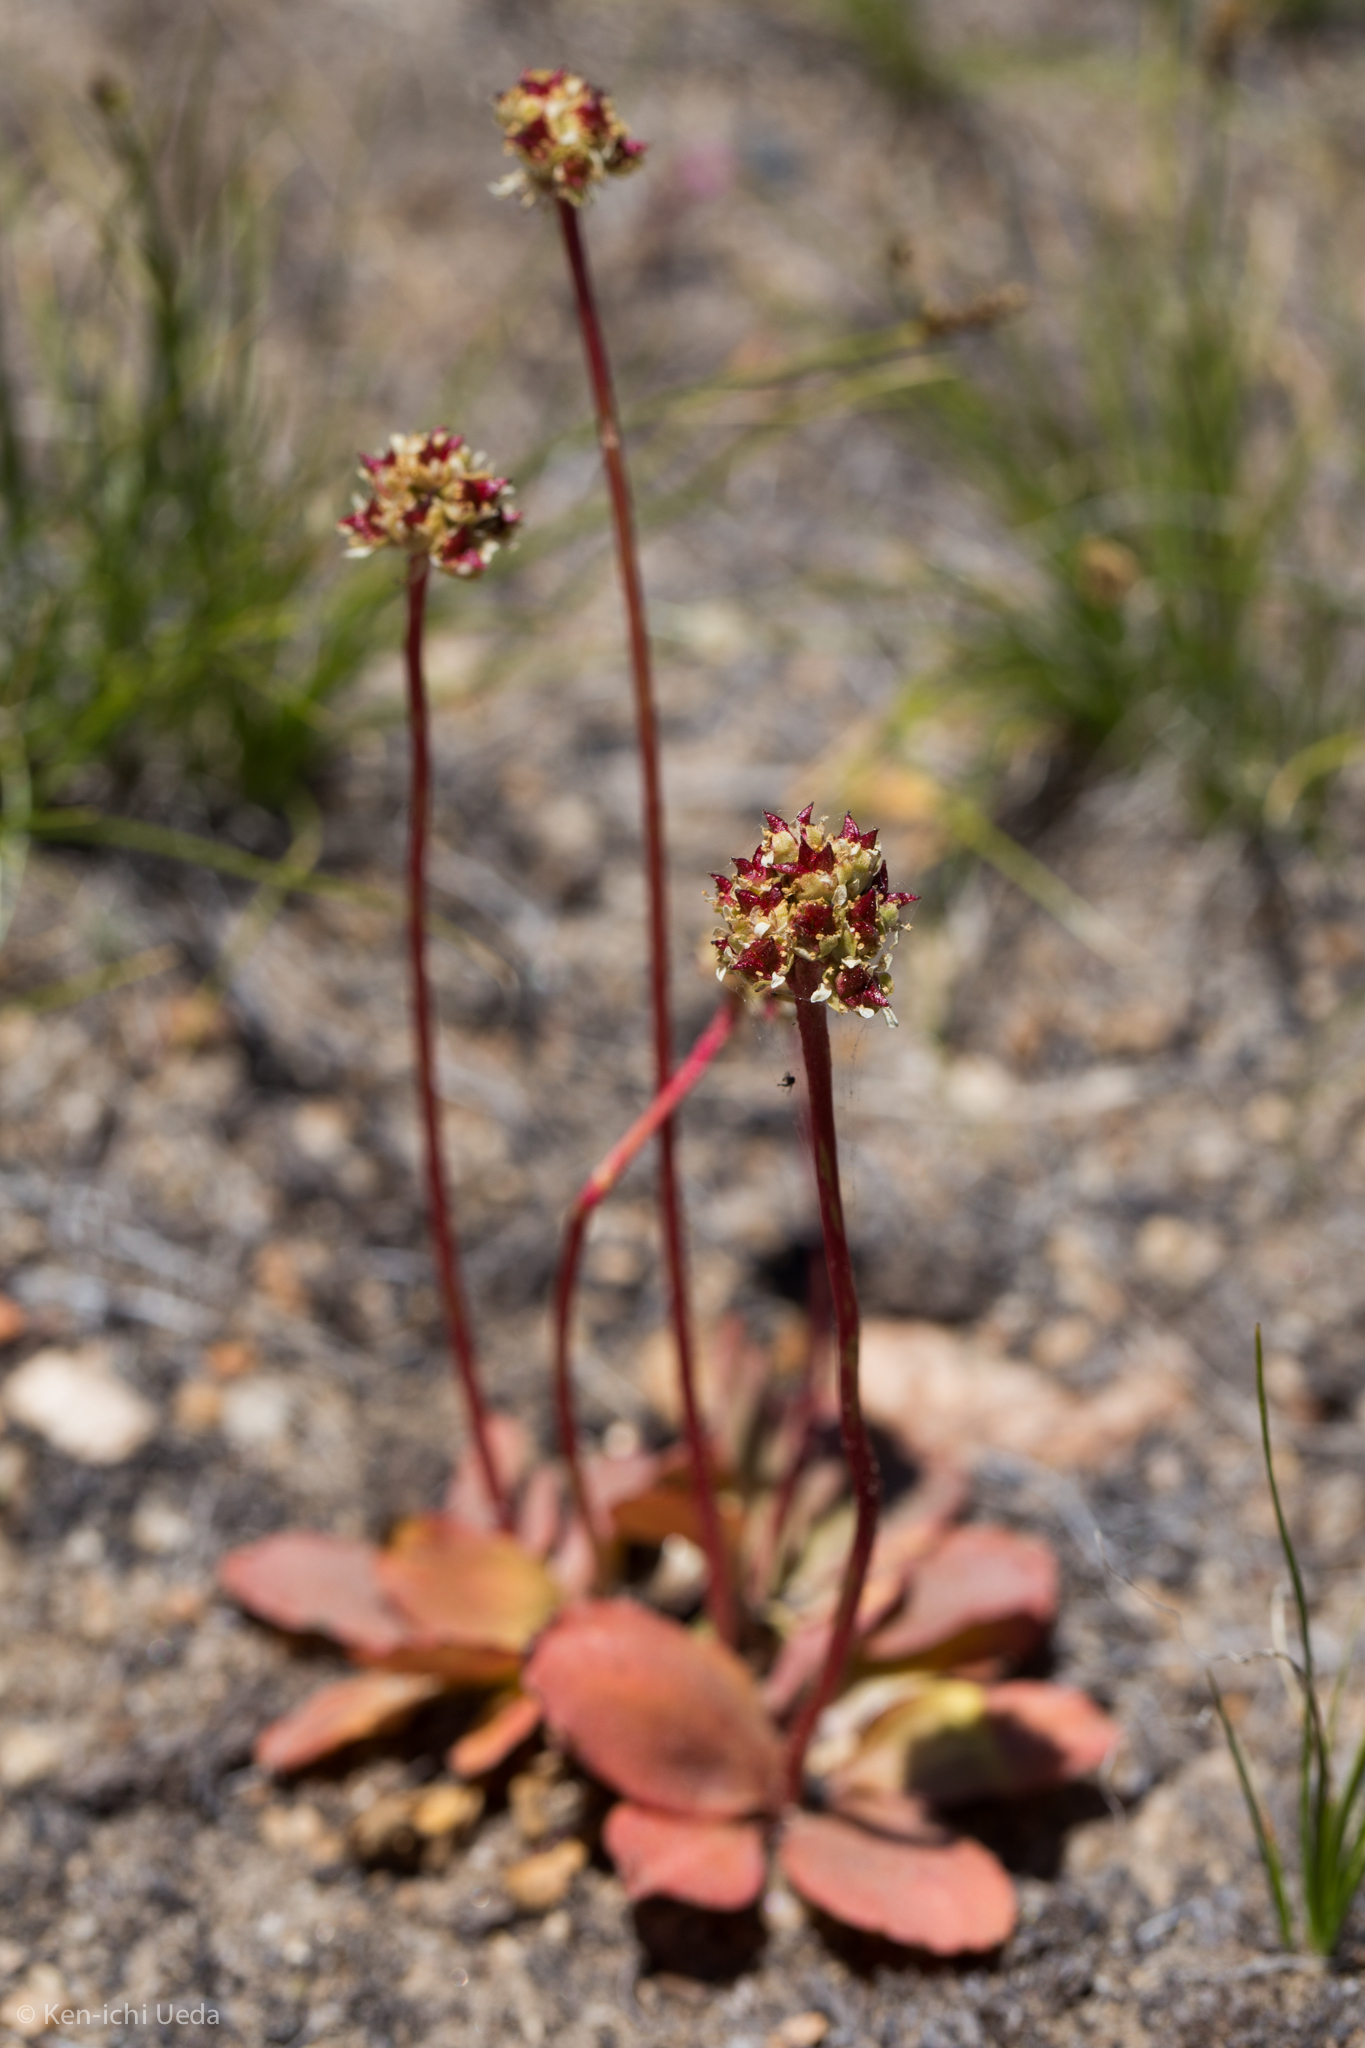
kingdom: Plantae
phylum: Tracheophyta
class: Magnoliopsida
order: Saxifragales
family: Saxifragaceae
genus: Micranthes
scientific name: Micranthes aprica
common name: Sierra saxifrage
